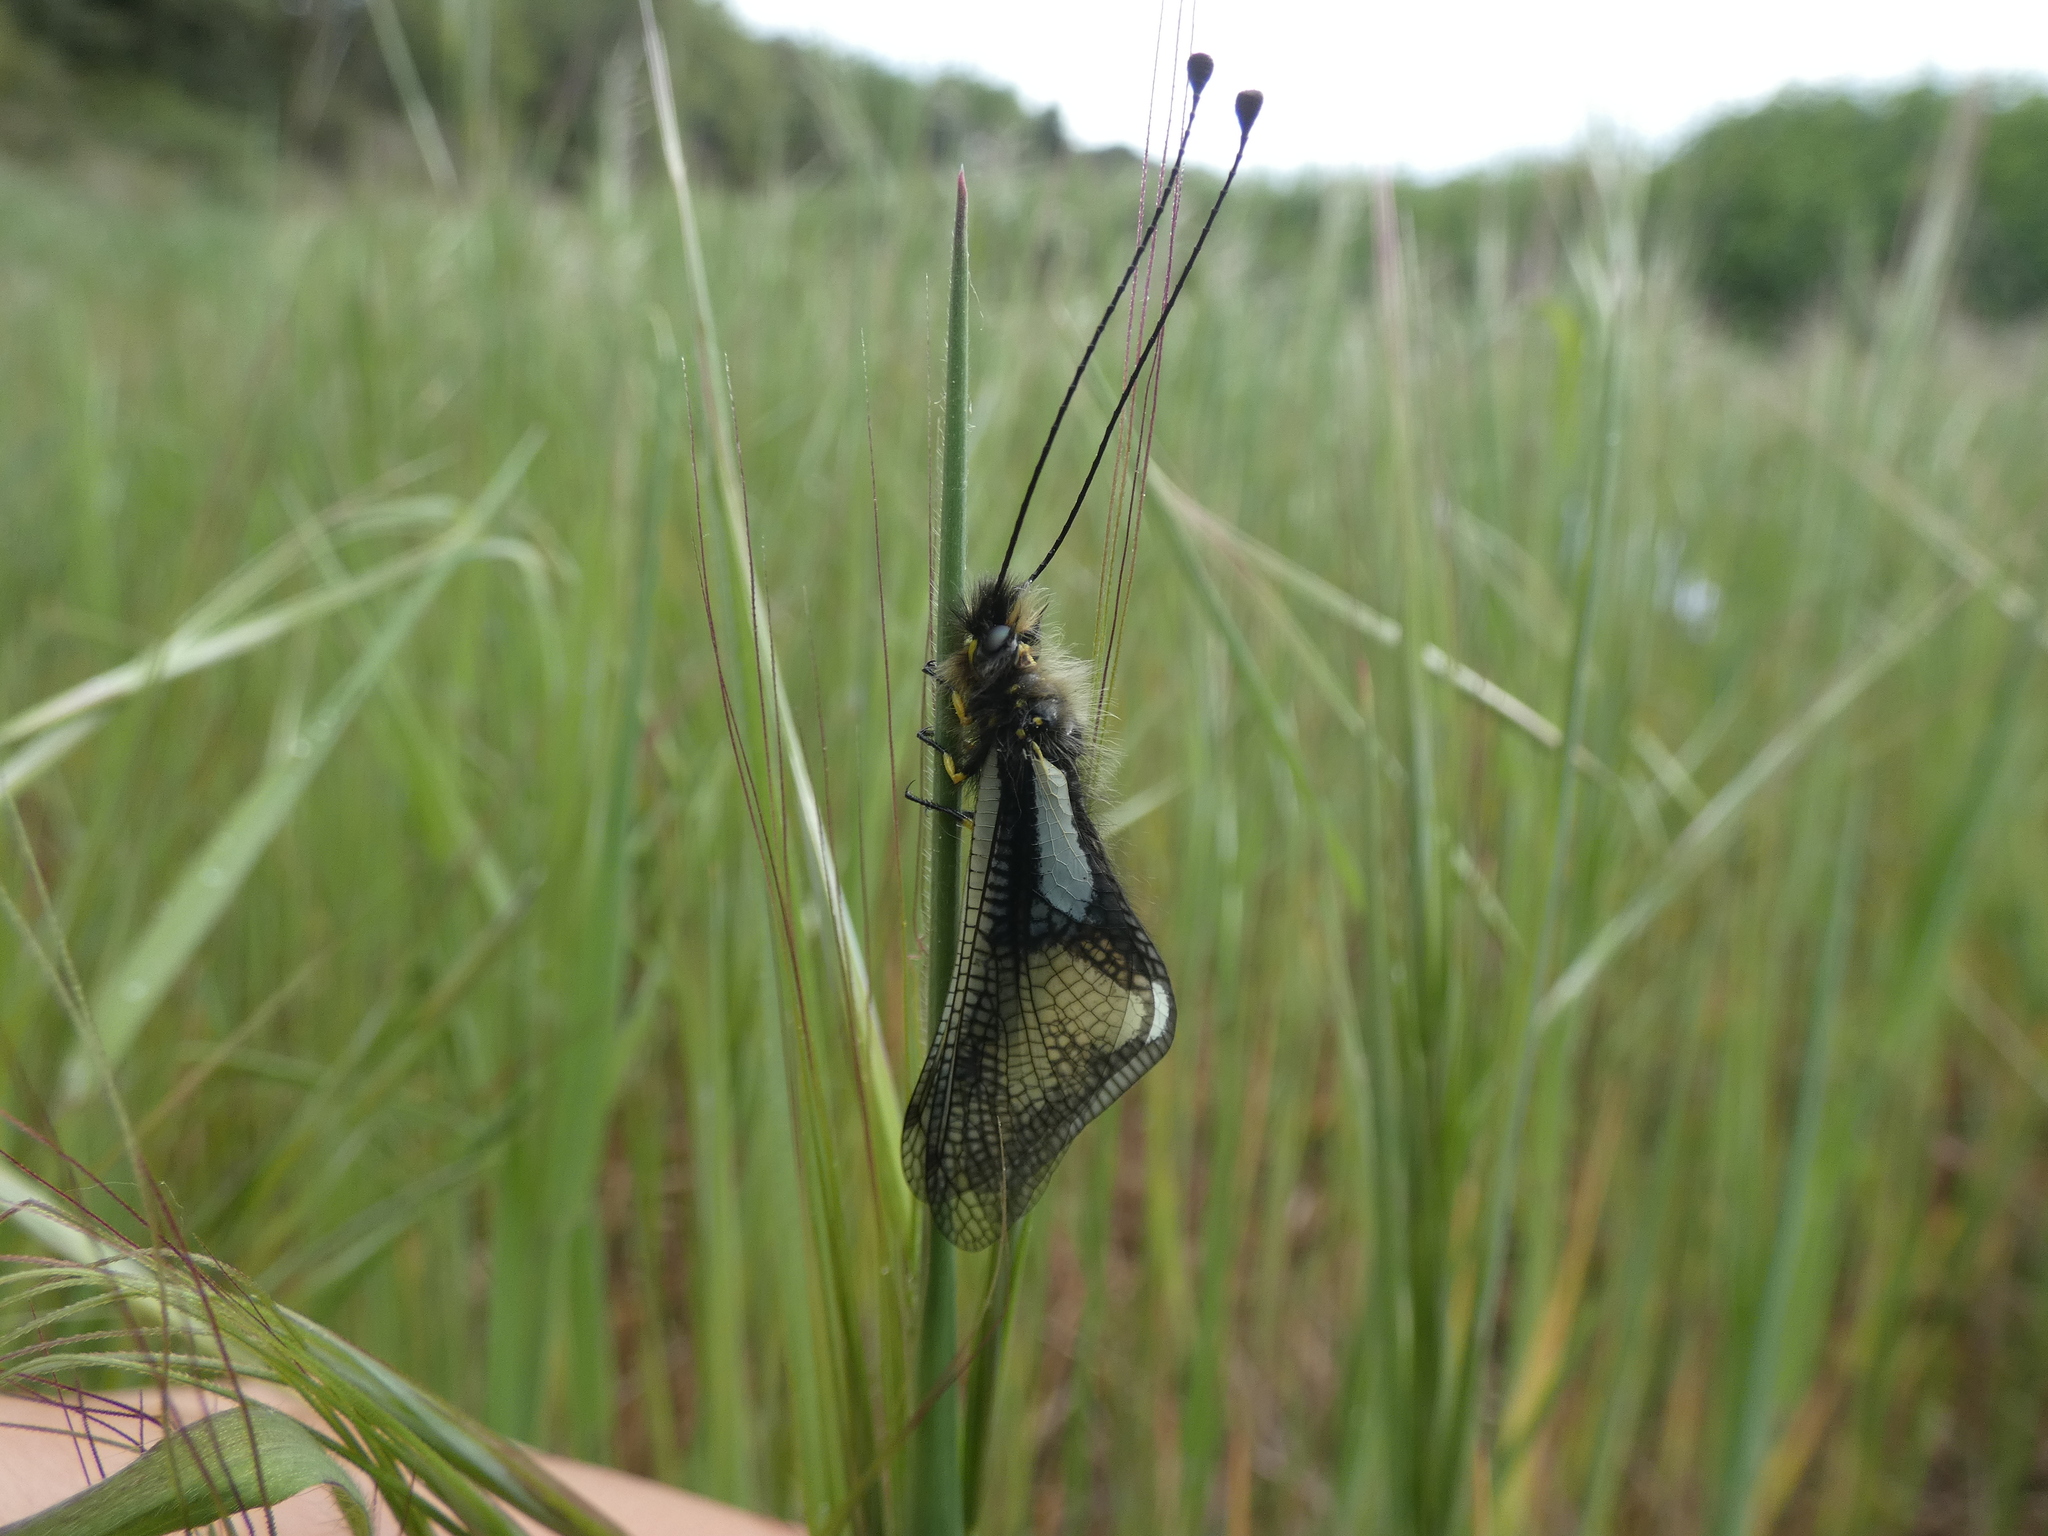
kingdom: Animalia
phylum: Arthropoda
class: Insecta
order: Neuroptera
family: Ascalaphidae
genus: Libelloides
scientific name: Libelloides coccajus
